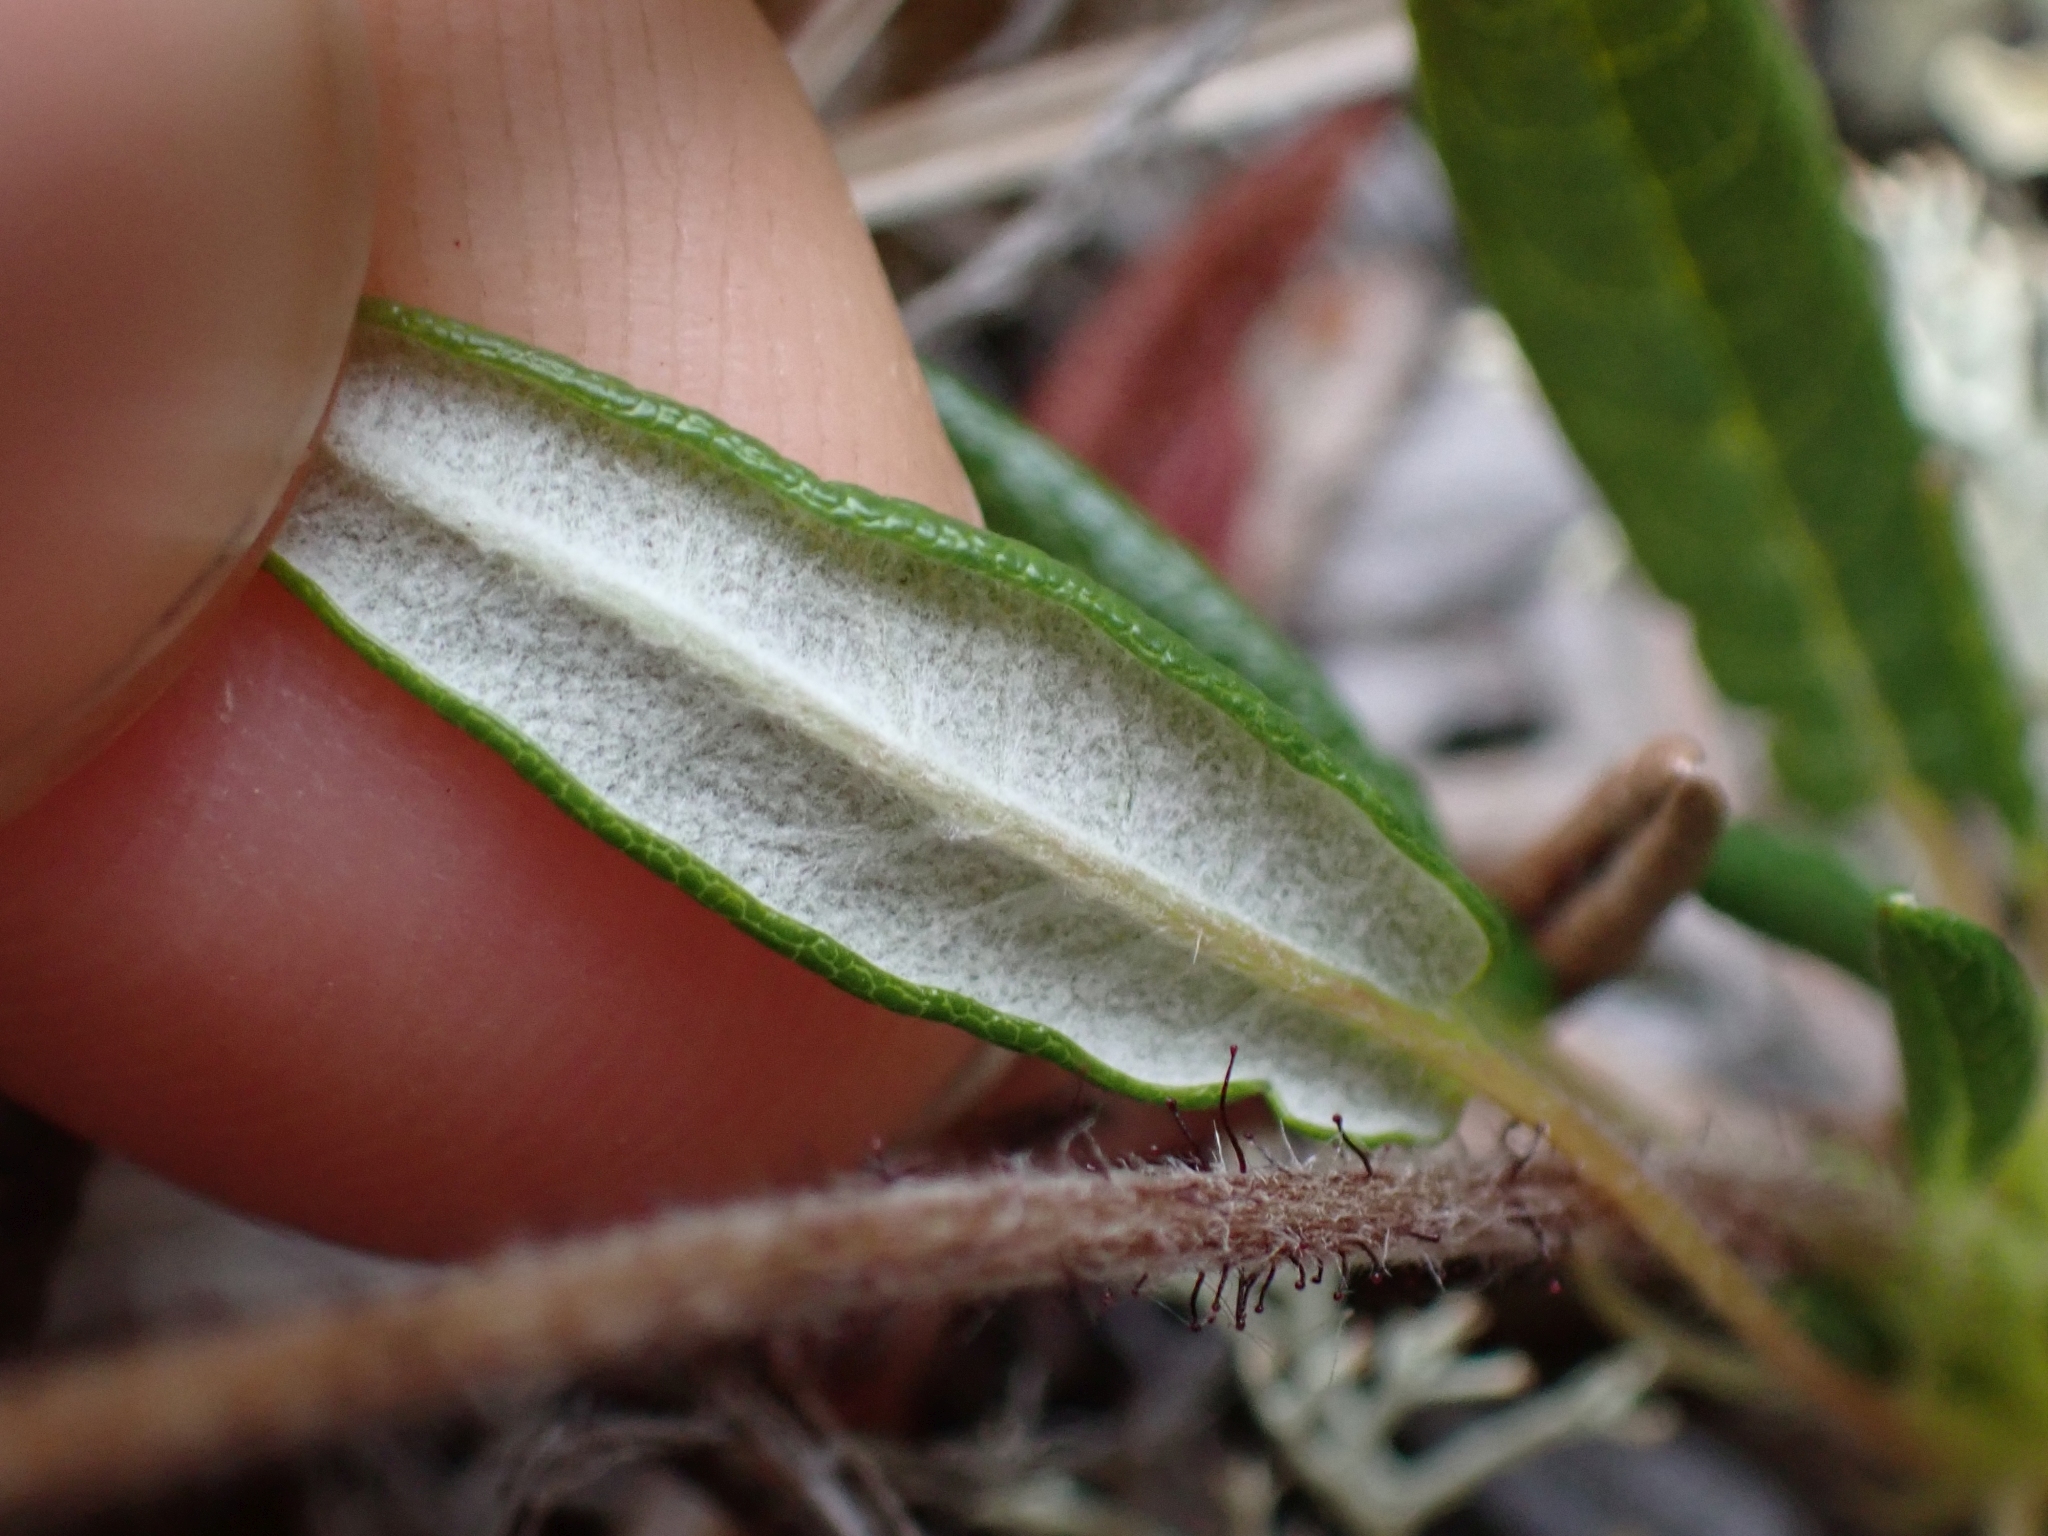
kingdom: Plantae
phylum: Tracheophyta
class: Magnoliopsida
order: Rosales
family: Rosaceae
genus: Dryas
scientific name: Dryas integrifolia
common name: Entire-leaved mountain avens
